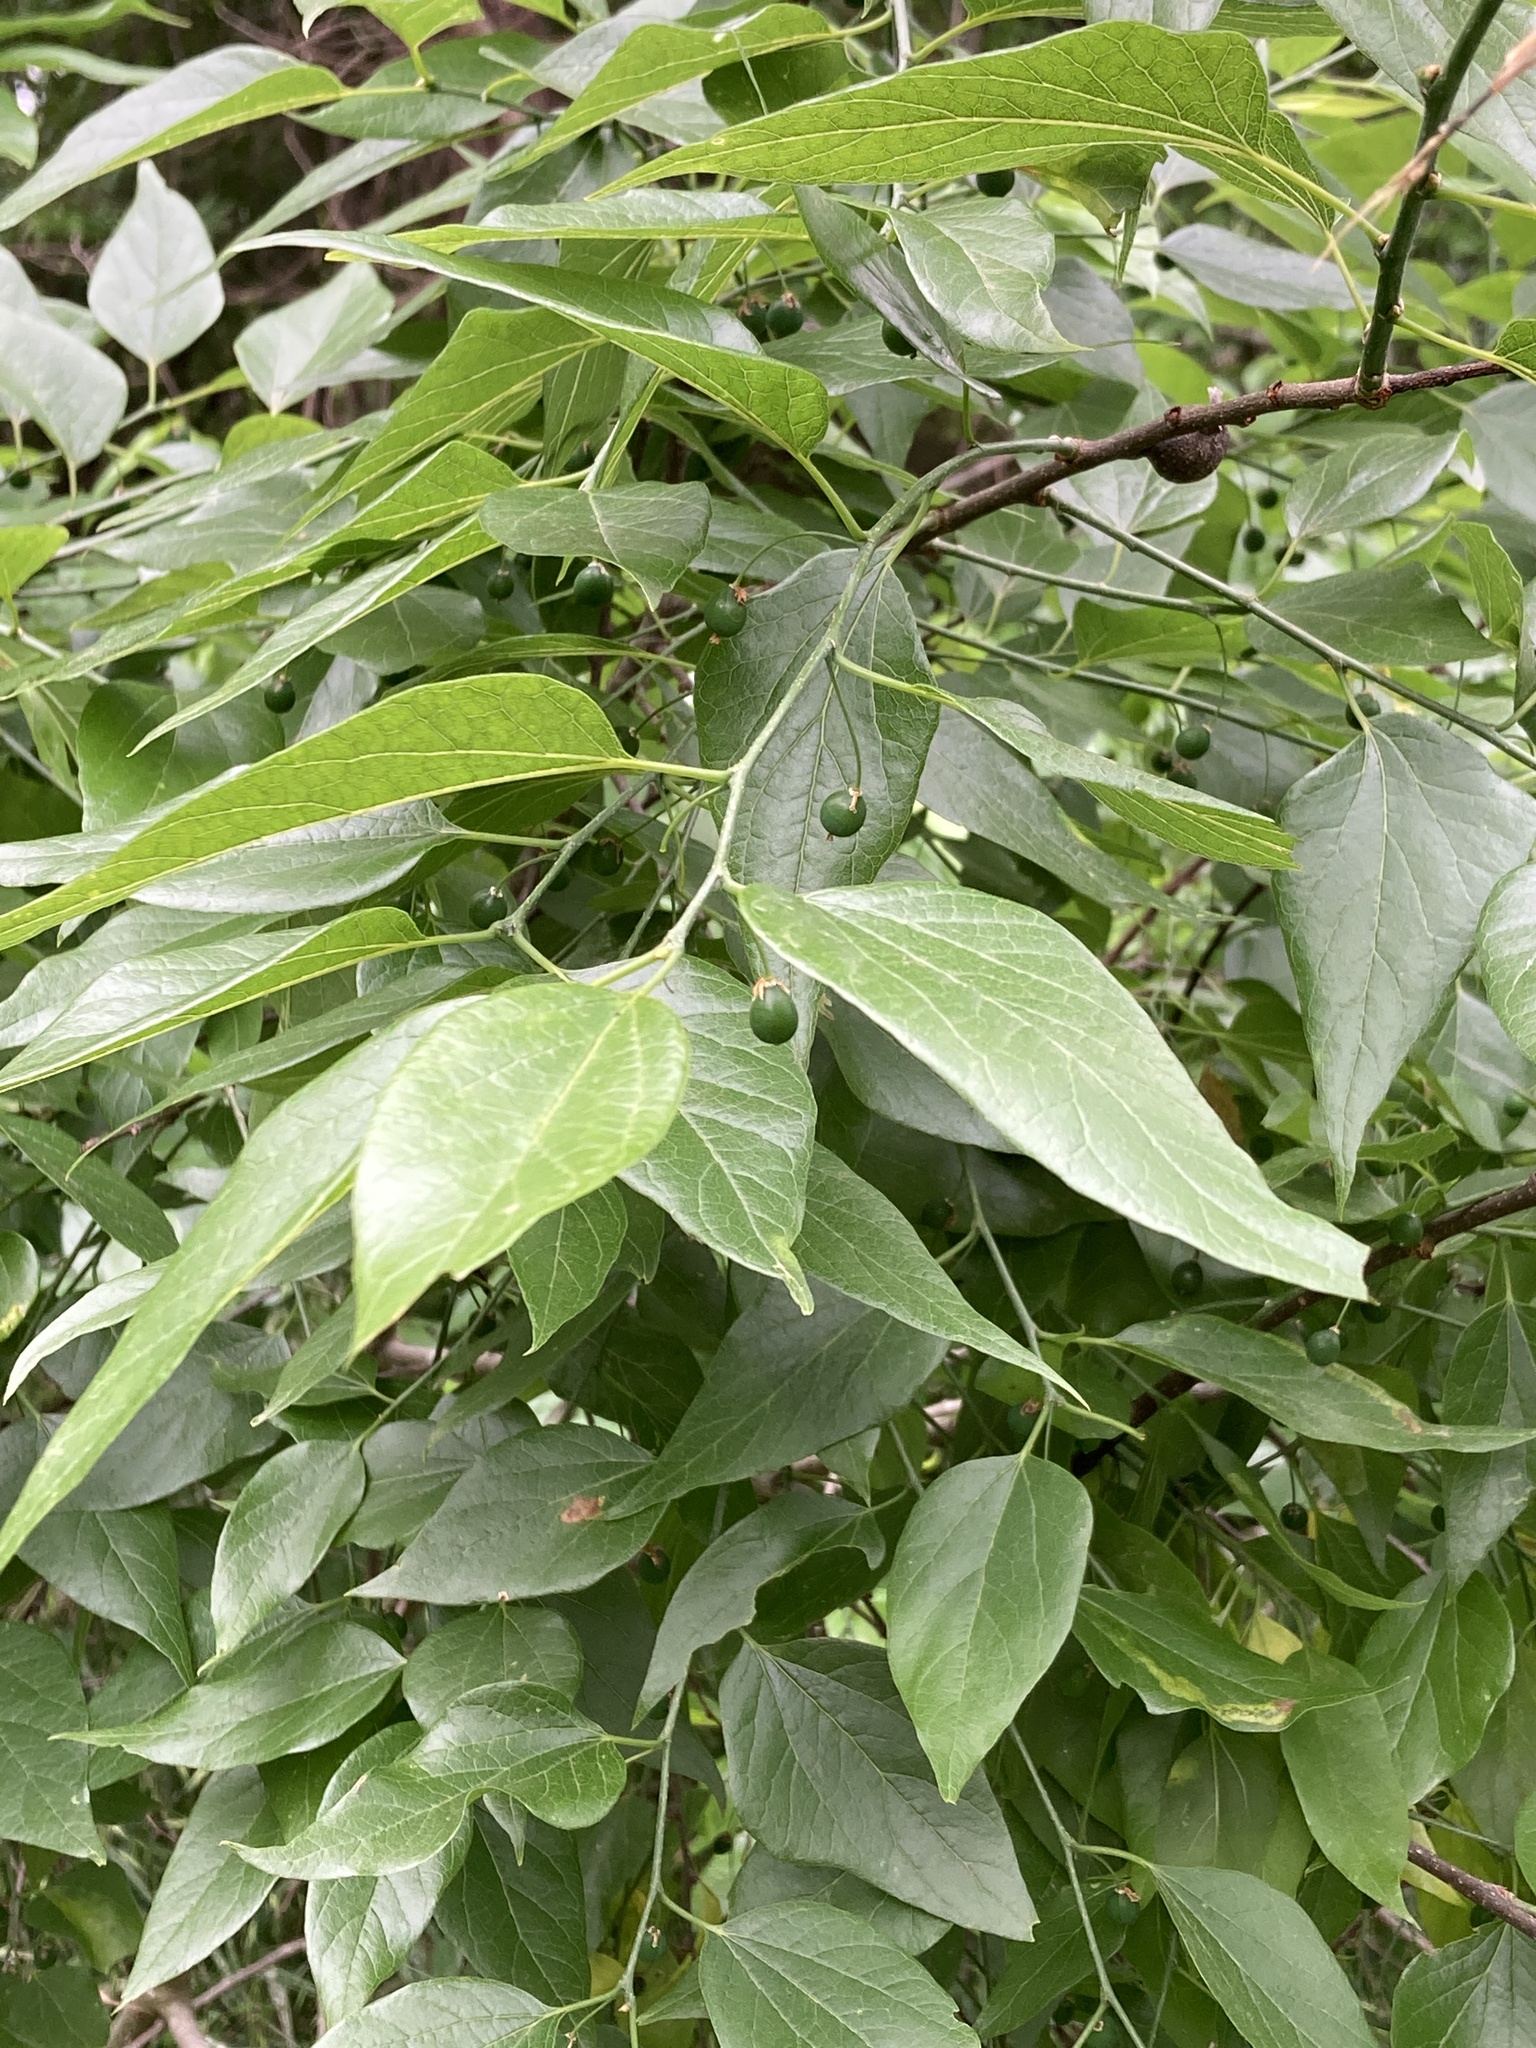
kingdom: Plantae
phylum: Tracheophyta
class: Magnoliopsida
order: Rosales
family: Cannabaceae
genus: Celtis
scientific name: Celtis laevigata
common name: Sugarberry
